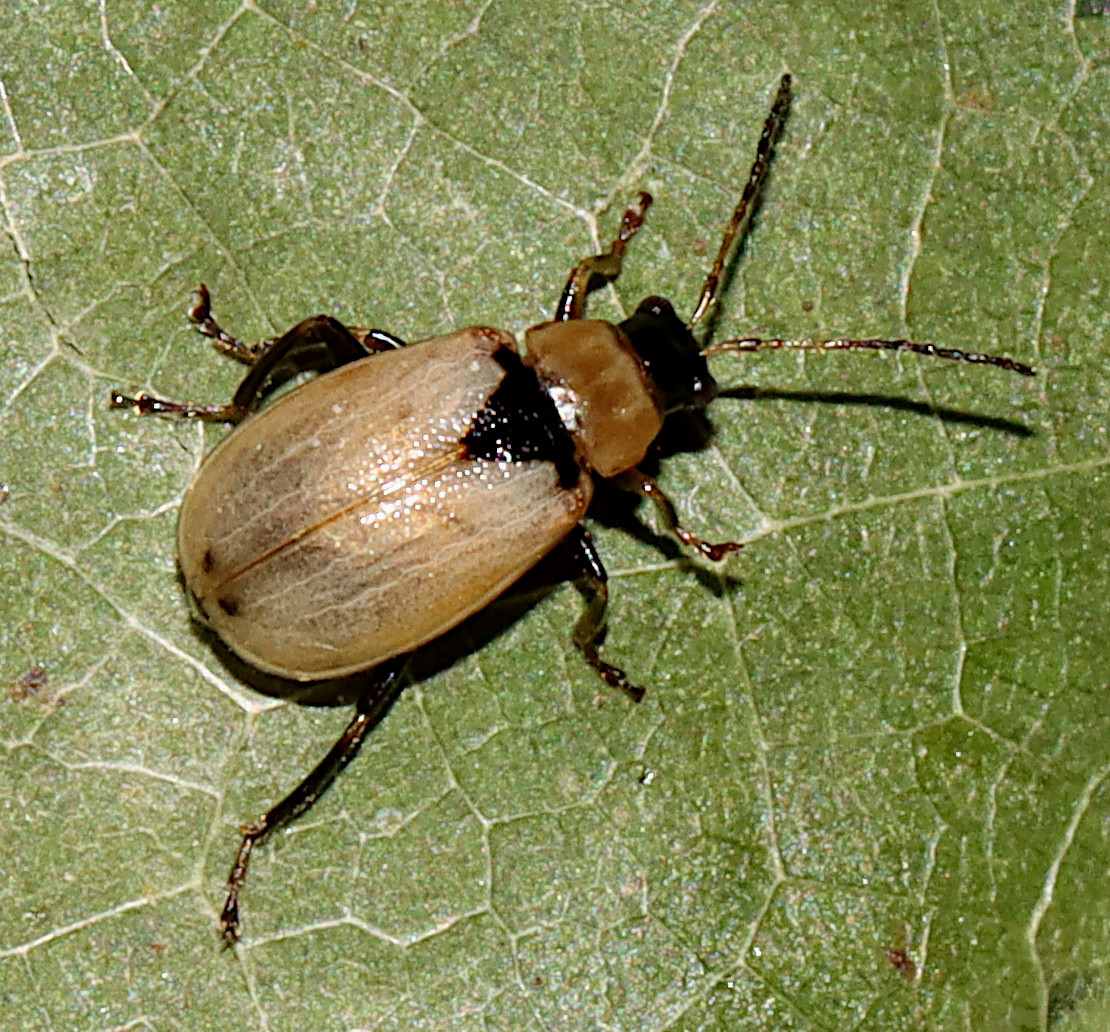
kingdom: Animalia
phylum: Arthropoda
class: Insecta
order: Coleoptera
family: Chrysomelidae
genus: Cerotoma
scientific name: Cerotoma trifurcata
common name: Bean leaf beetle
